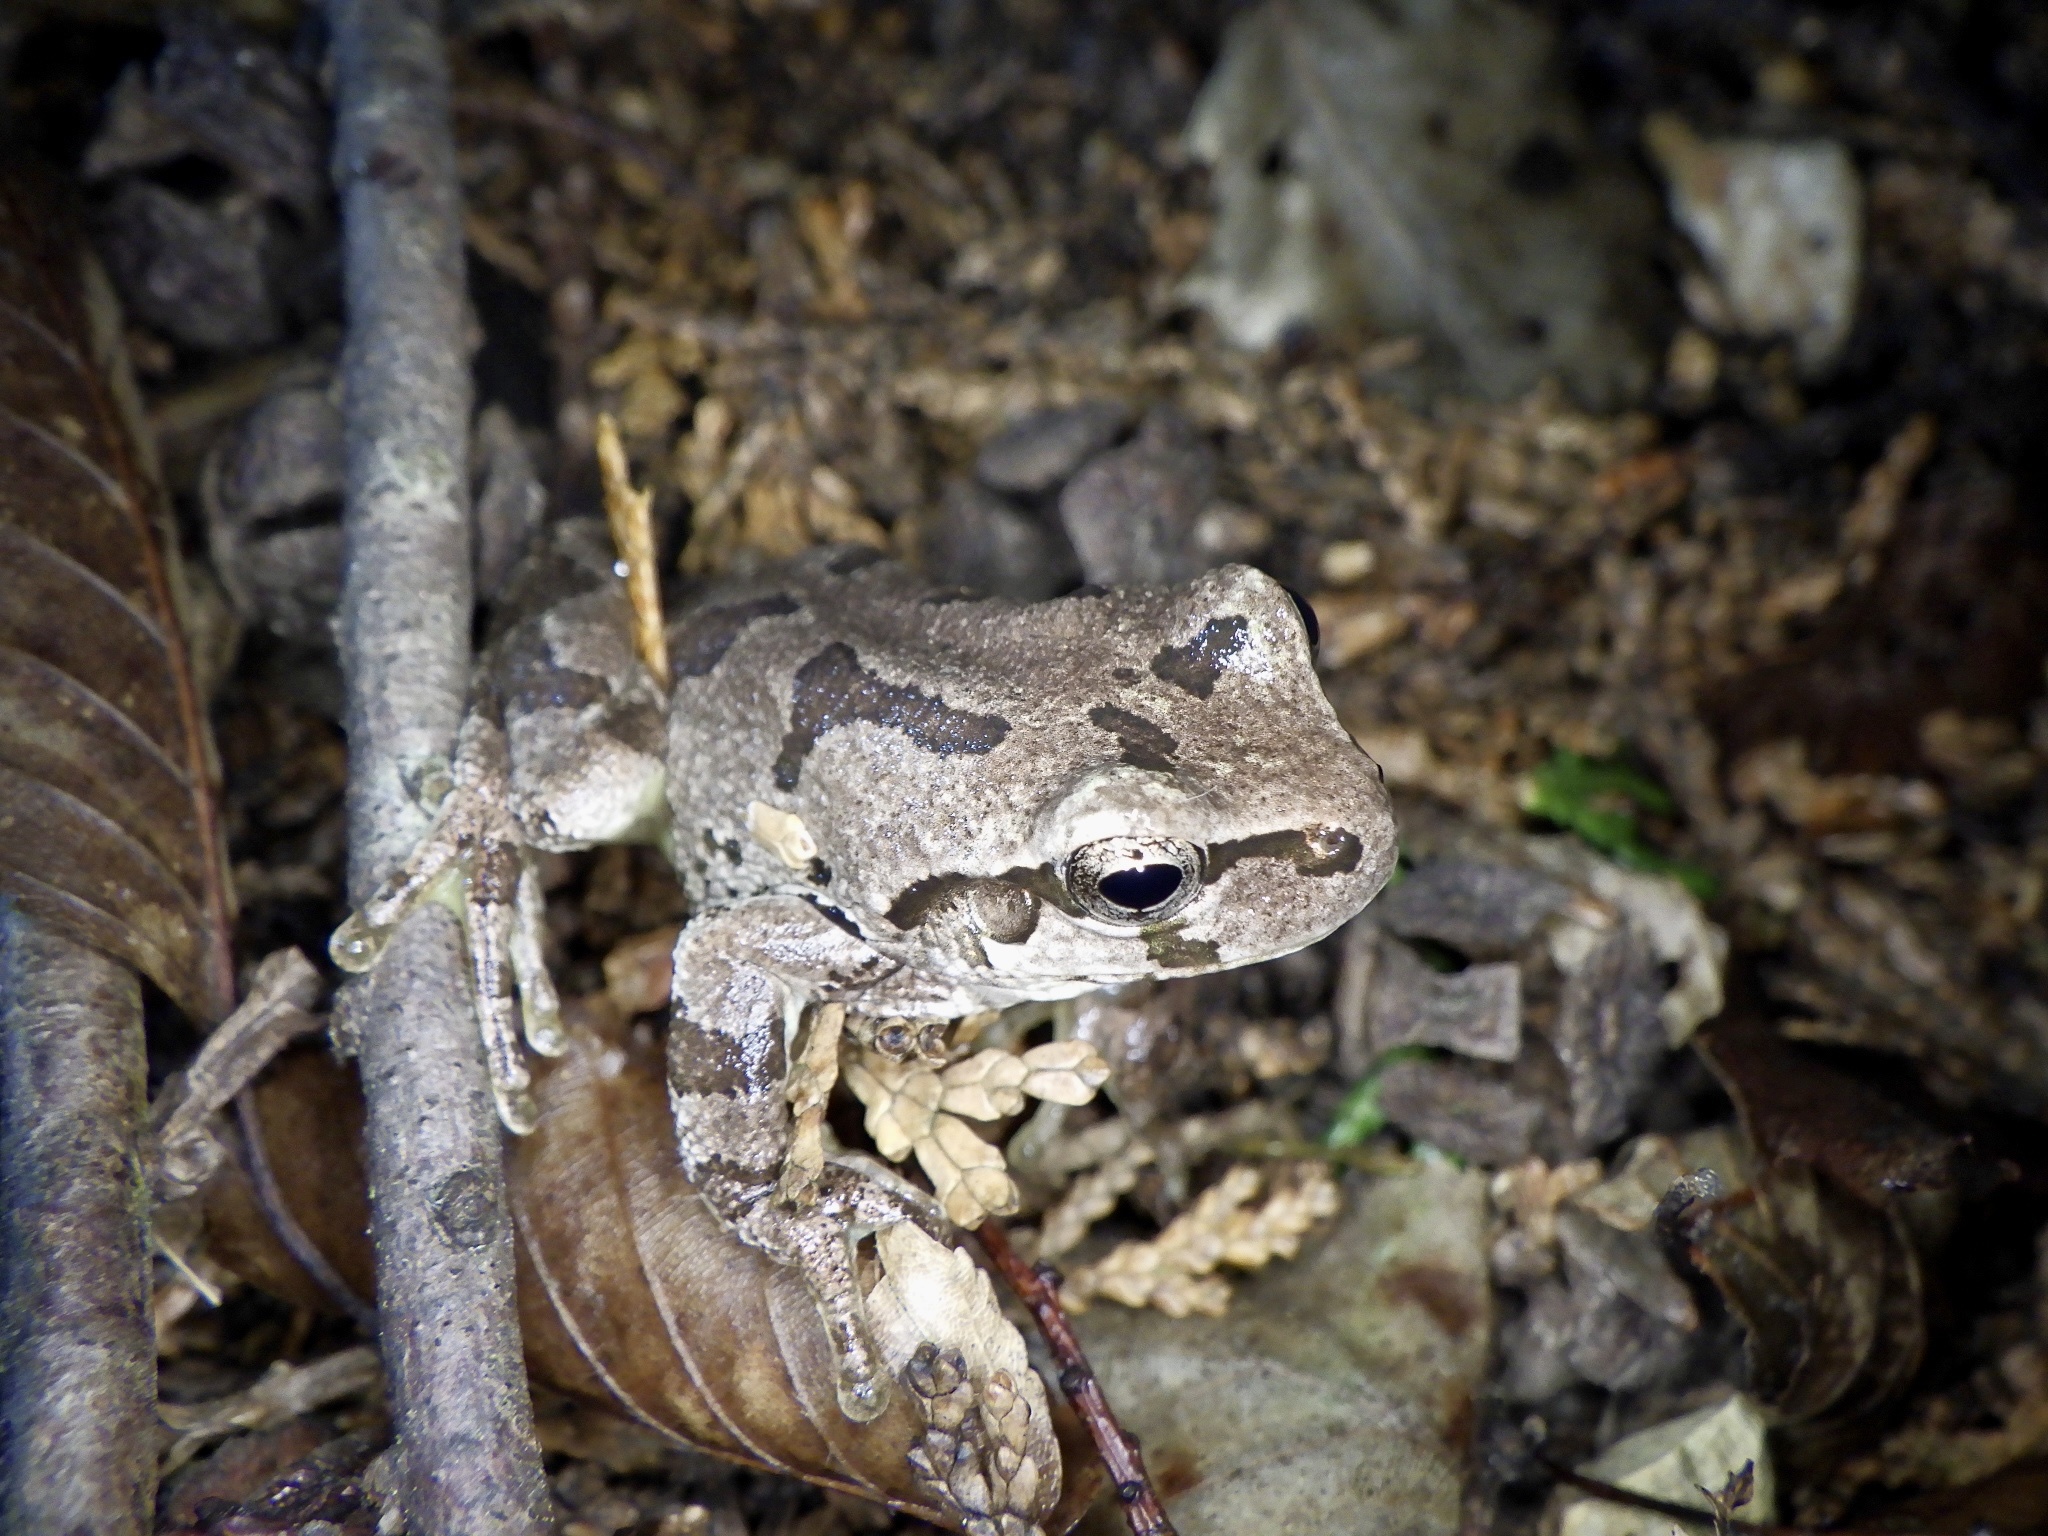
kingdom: Animalia
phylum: Chordata
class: Amphibia
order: Anura
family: Hylidae
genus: Dryophytes
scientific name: Dryophytes japonicus
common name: Japanese treefrog
